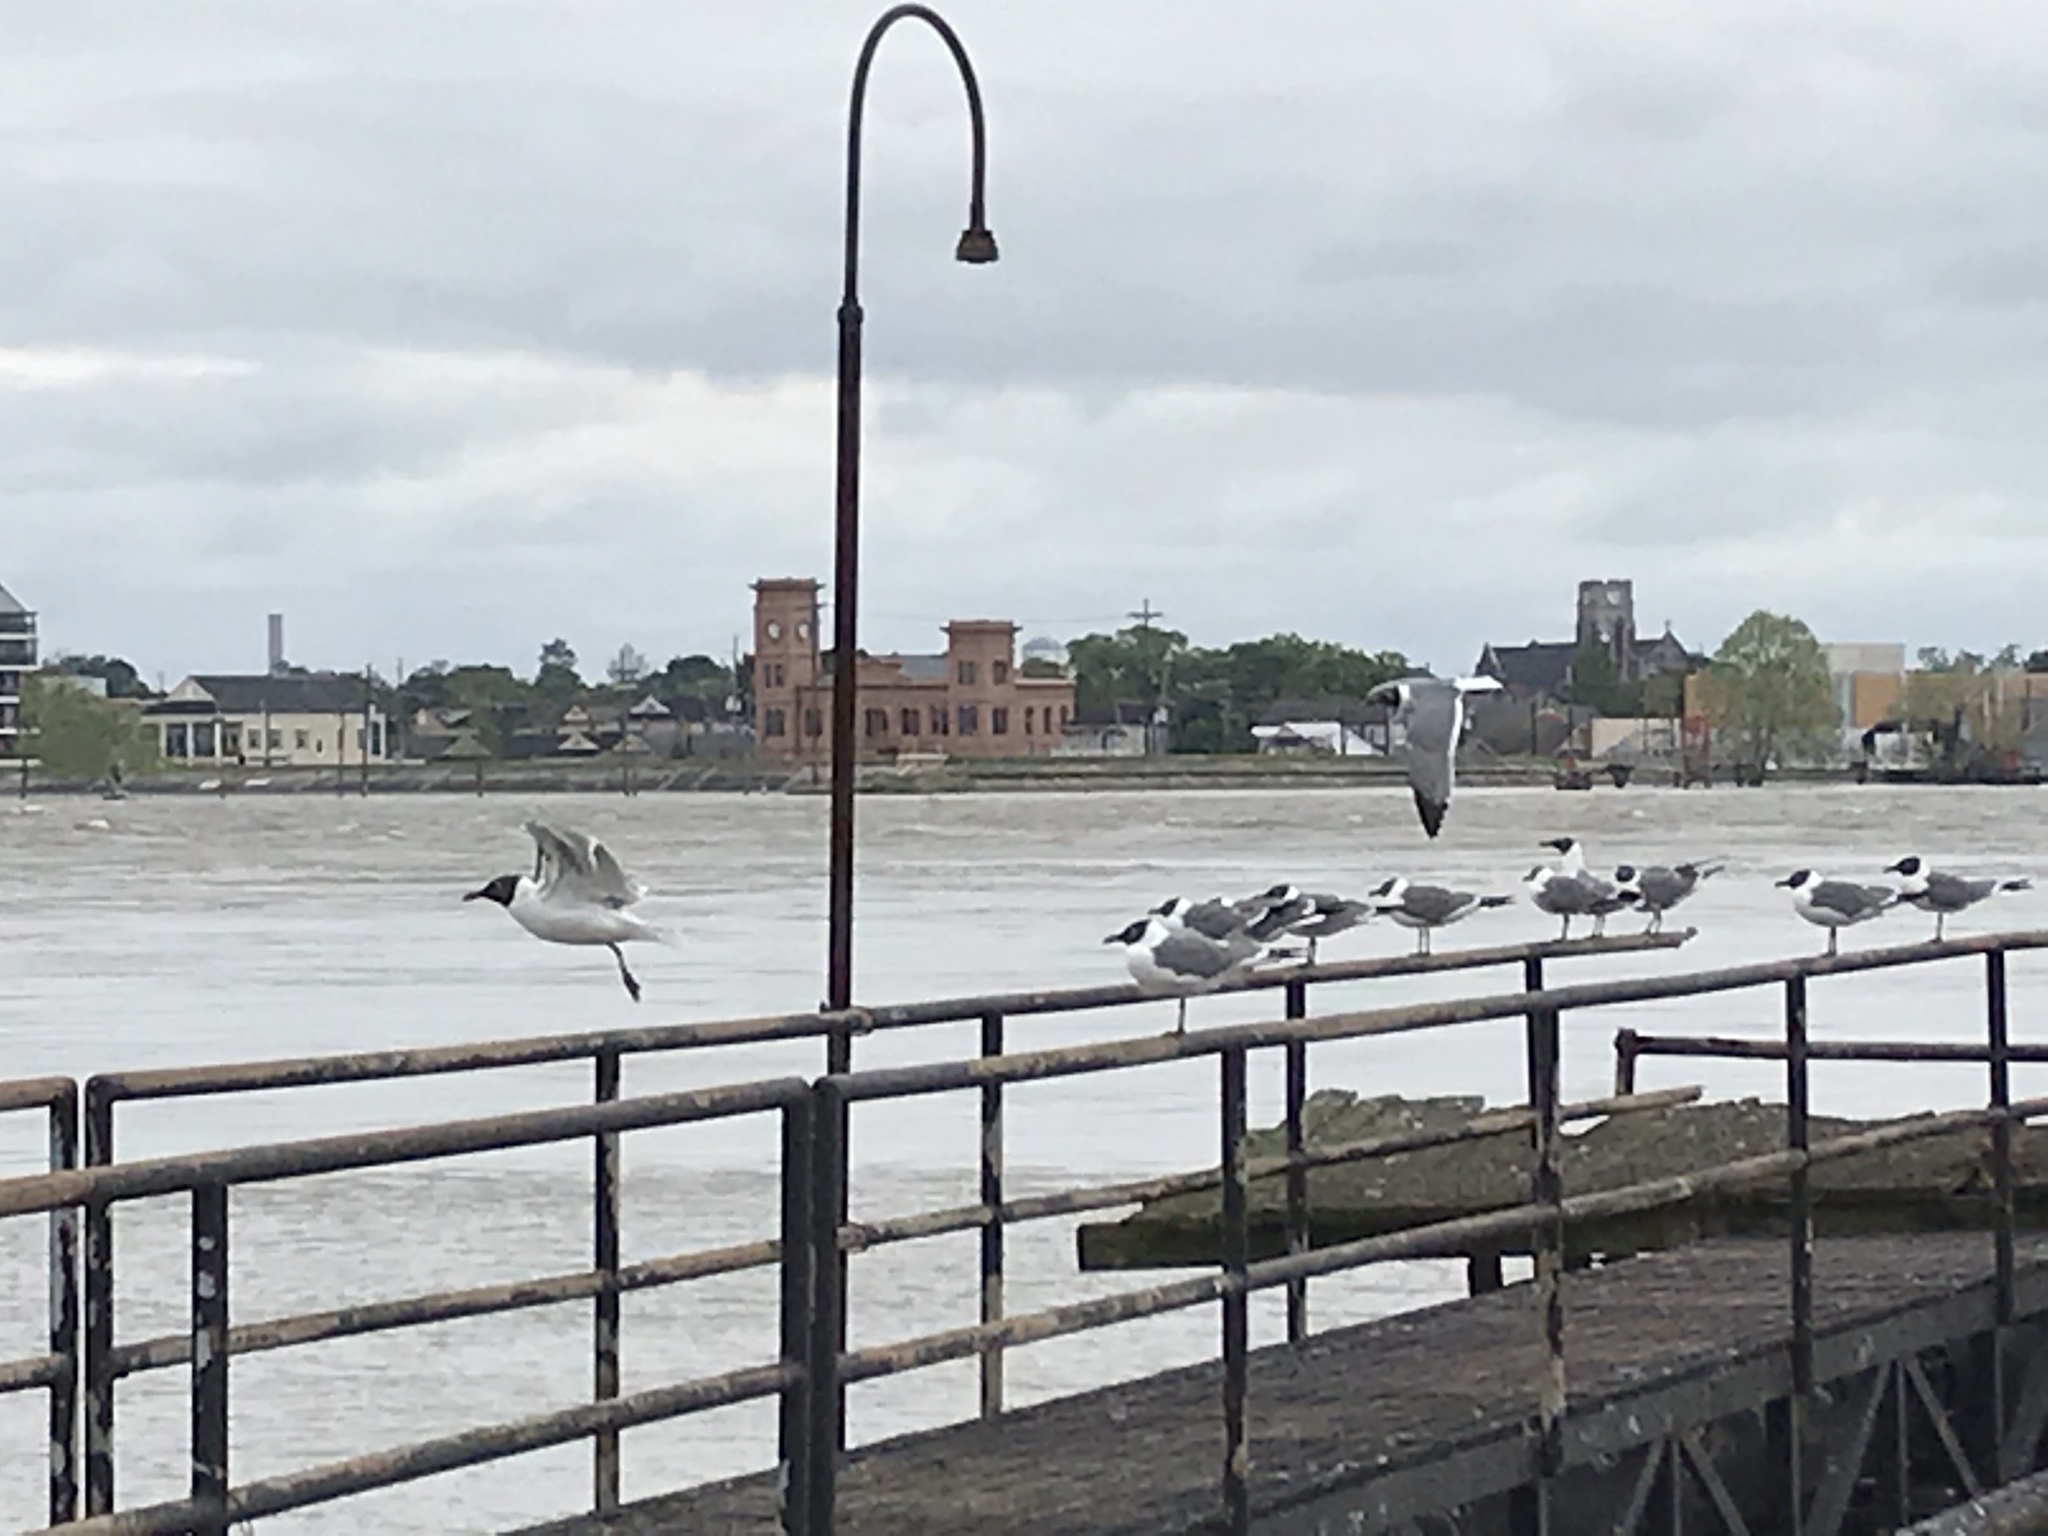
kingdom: Animalia
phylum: Chordata
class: Aves
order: Charadriiformes
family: Laridae
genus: Leucophaeus
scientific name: Leucophaeus atricilla
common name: Laughing gull
